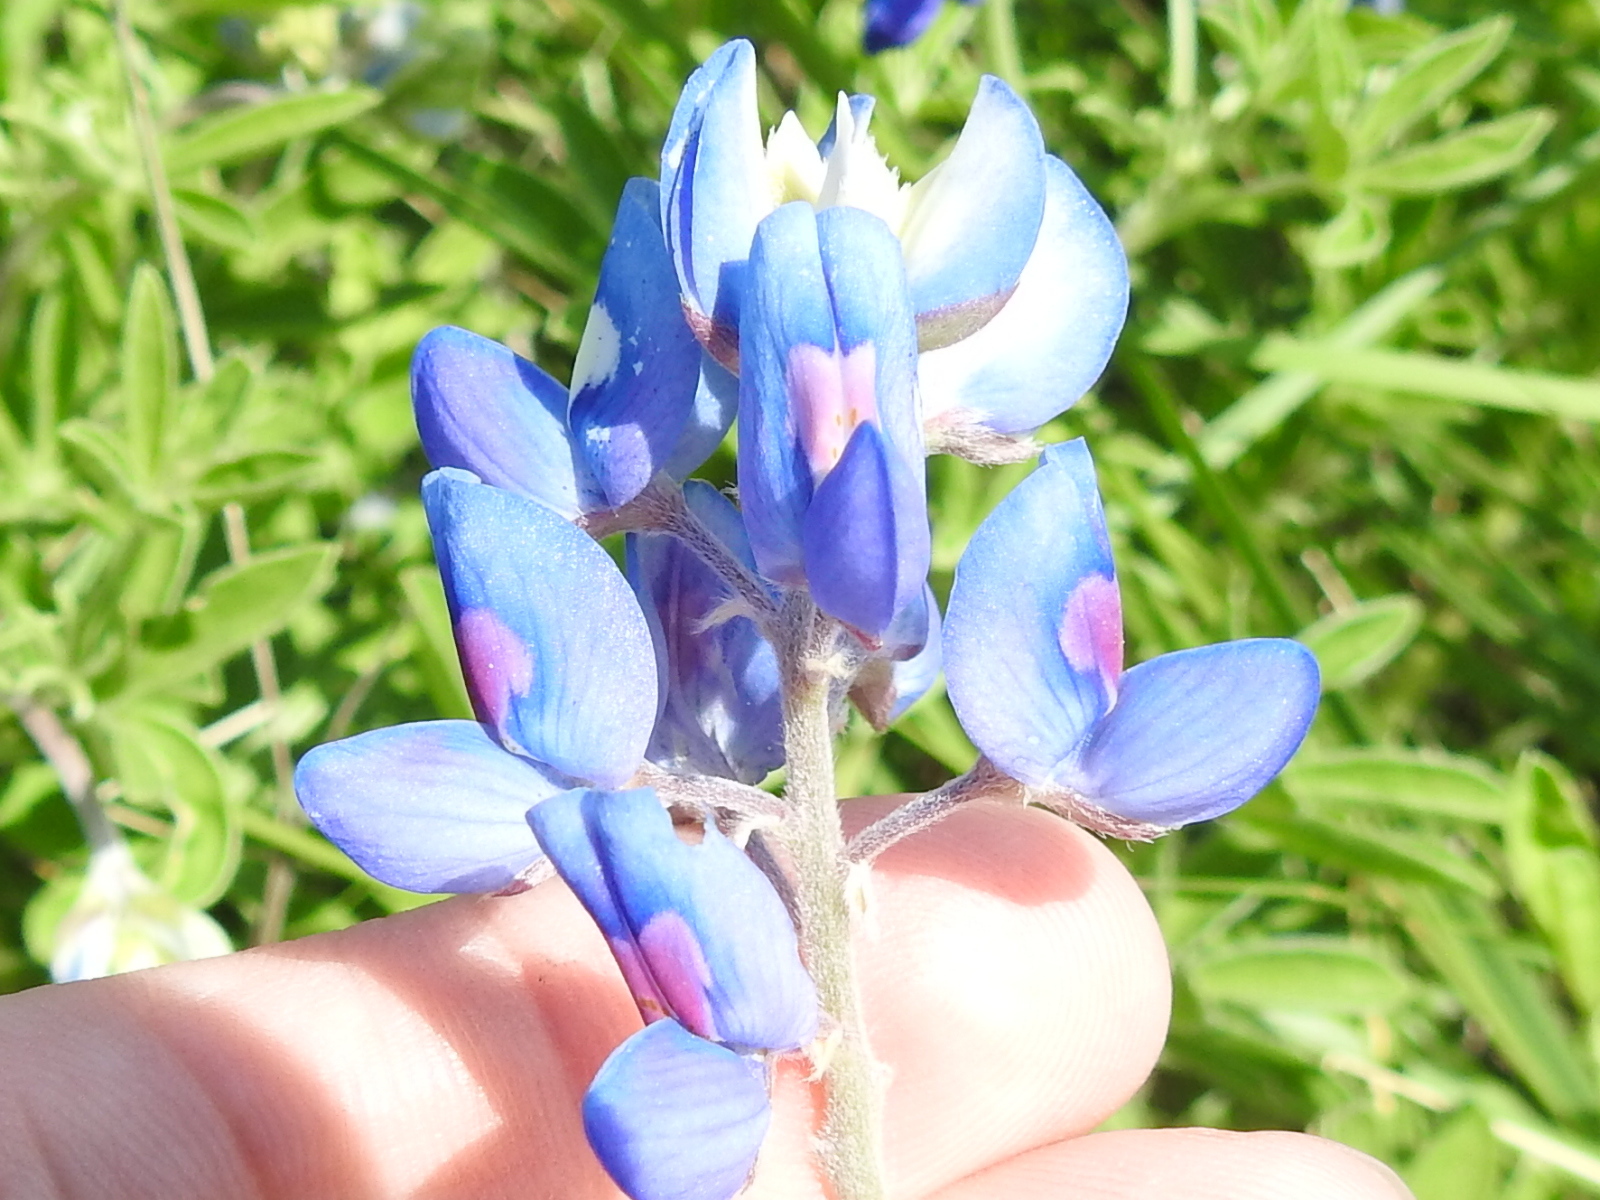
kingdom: Plantae
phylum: Tracheophyta
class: Magnoliopsida
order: Fabales
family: Fabaceae
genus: Lupinus
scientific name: Lupinus texensis
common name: Texas bluebonnet
